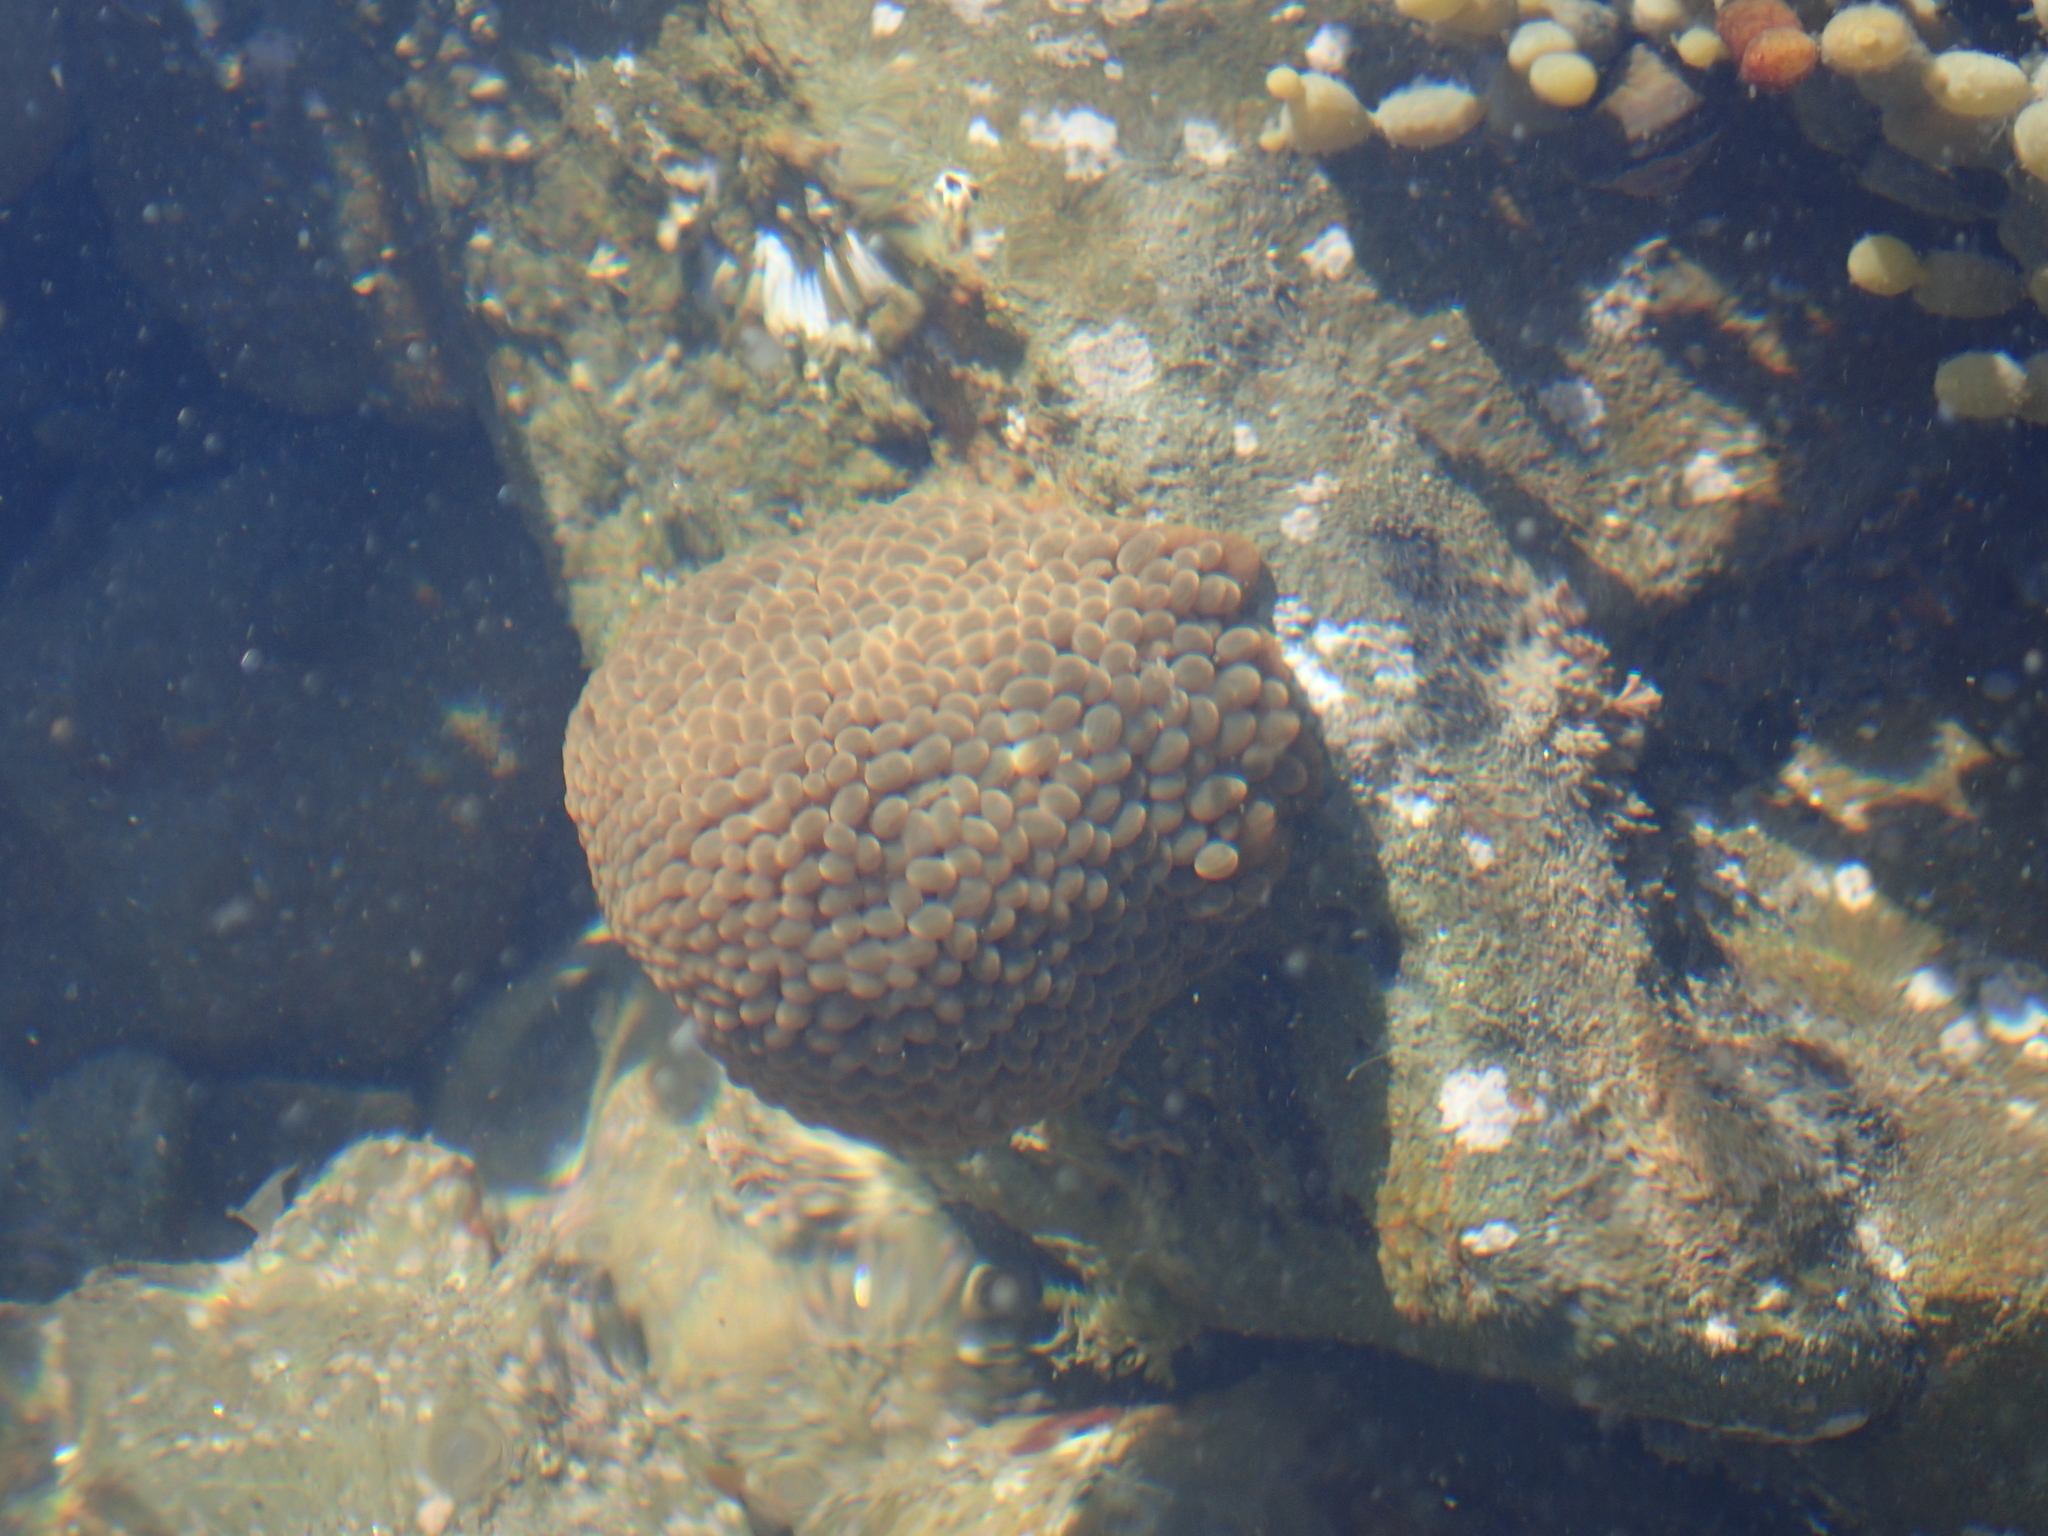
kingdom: Animalia
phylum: Cnidaria
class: Anthozoa
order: Actiniaria
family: Actiniidae
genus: Phlyctenactis
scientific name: Phlyctenactis tuberculosa
